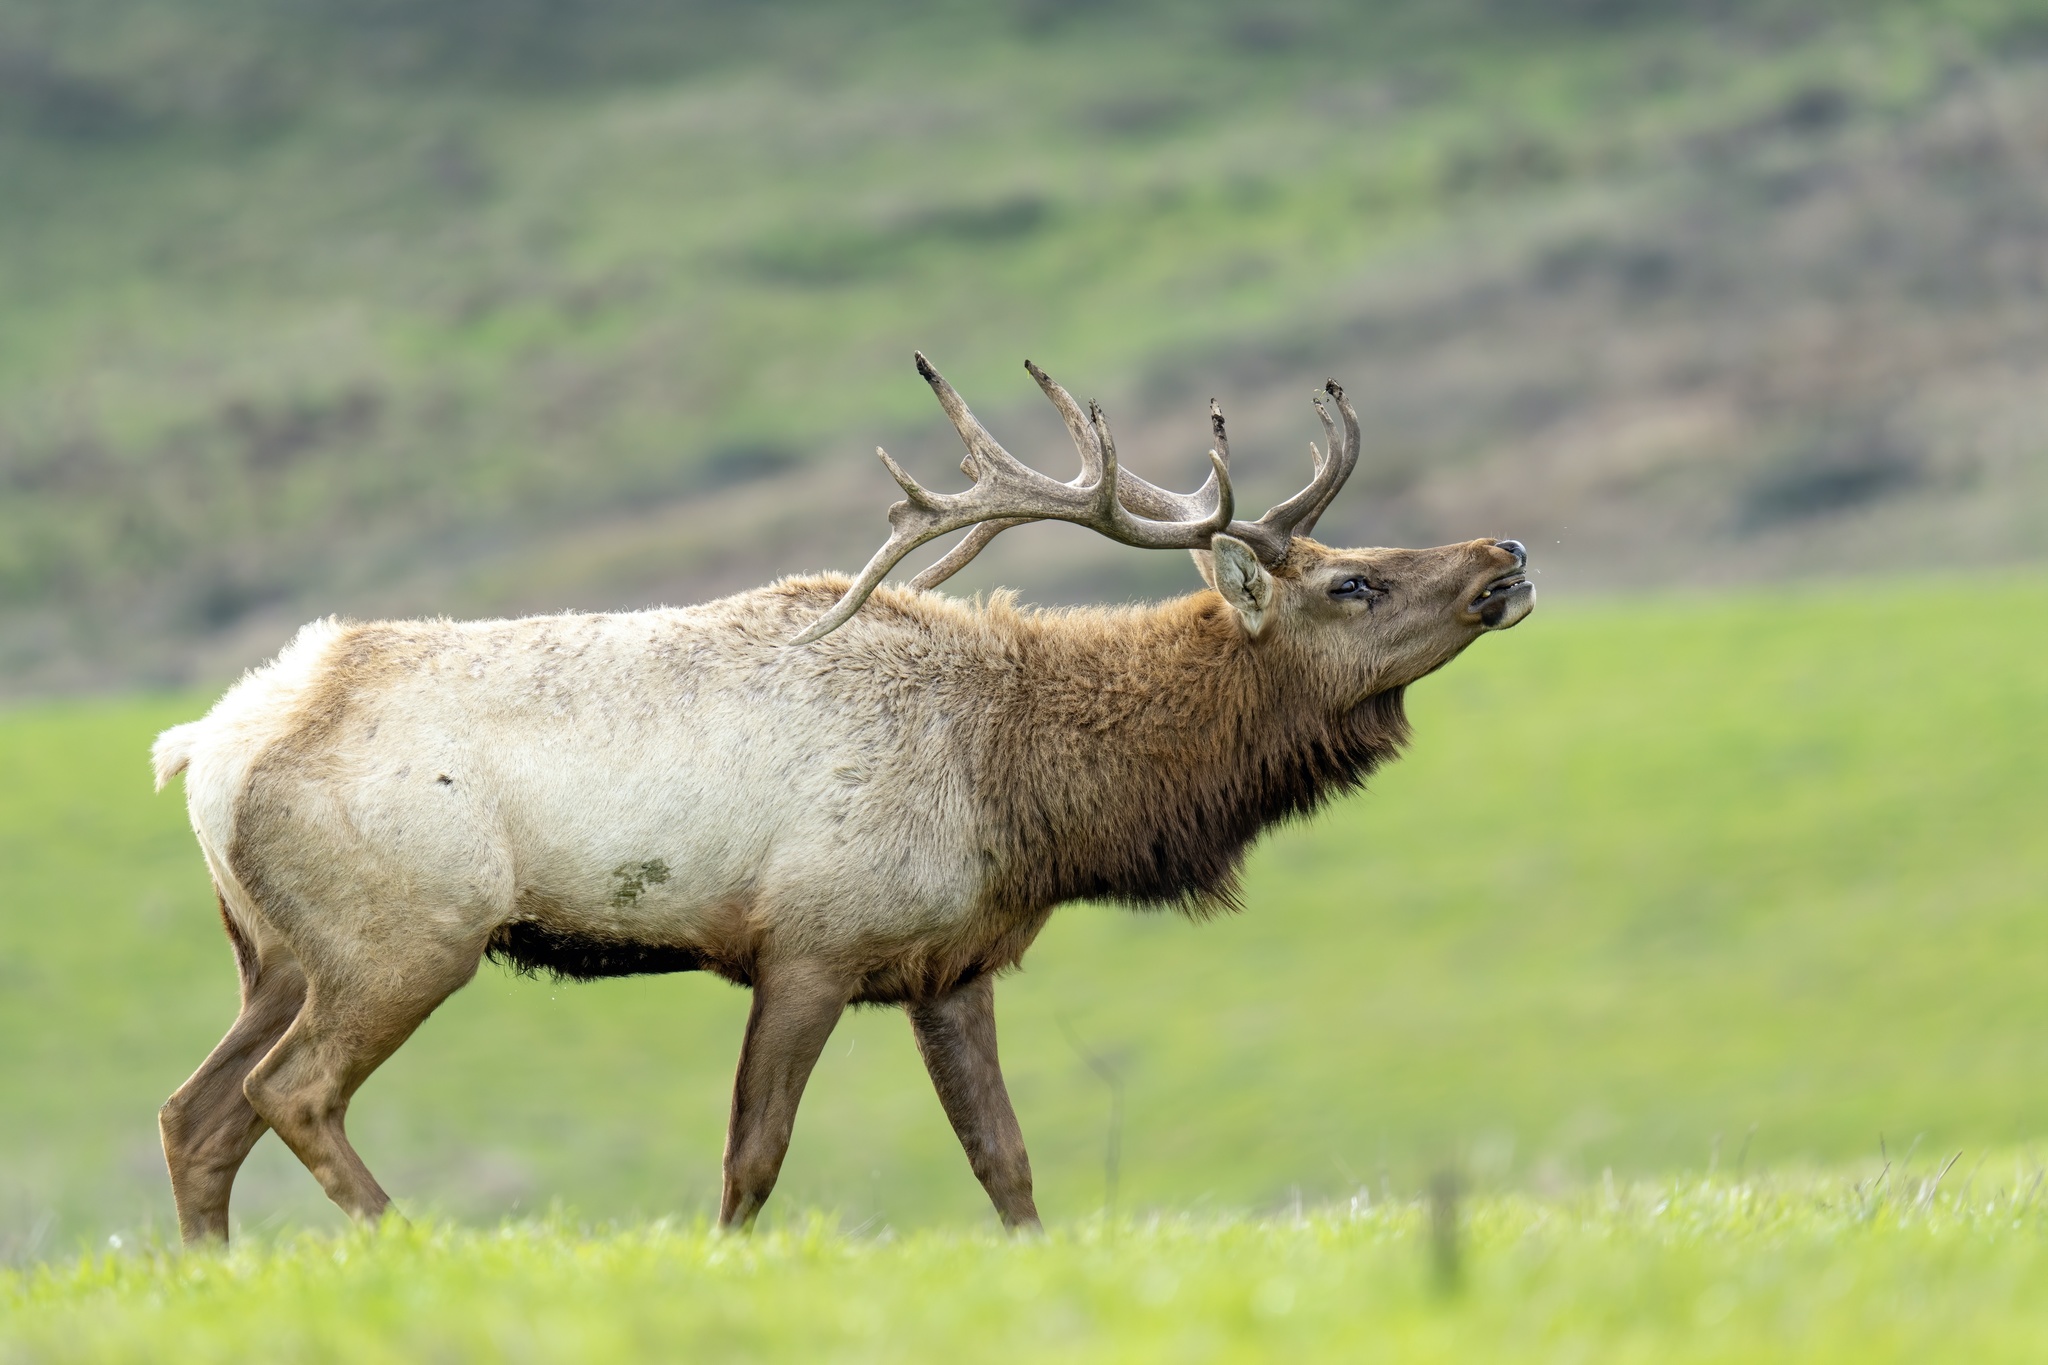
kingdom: Animalia
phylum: Chordata
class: Mammalia
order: Artiodactyla
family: Cervidae
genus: Cervus
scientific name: Cervus elaphus
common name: Red deer
